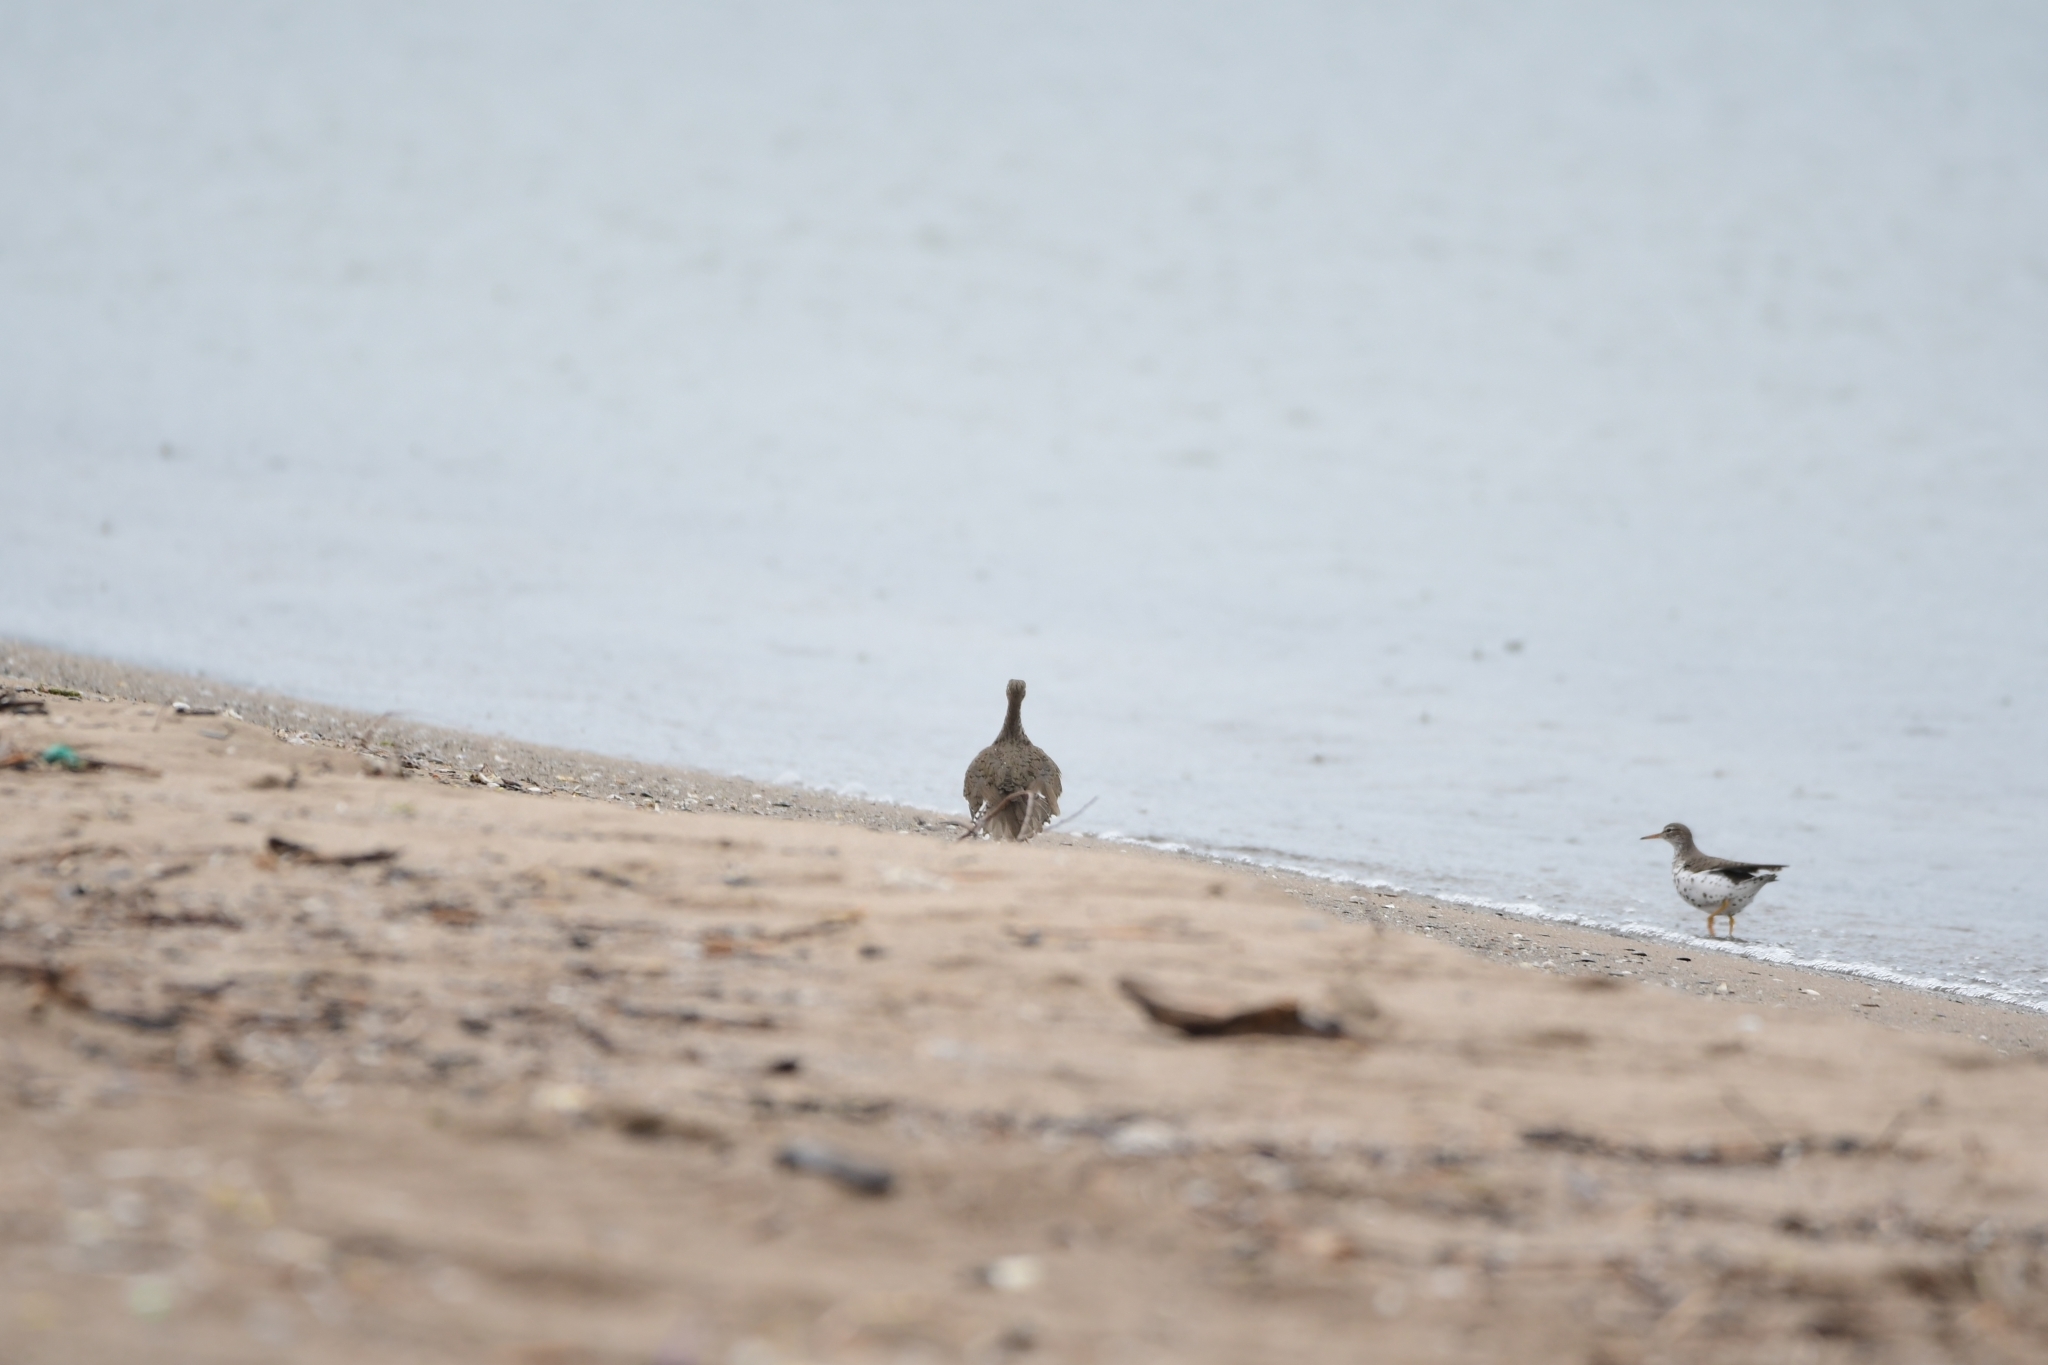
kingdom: Animalia
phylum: Chordata
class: Aves
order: Charadriiformes
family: Scolopacidae
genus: Actitis
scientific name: Actitis macularius
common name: Spotted sandpiper
